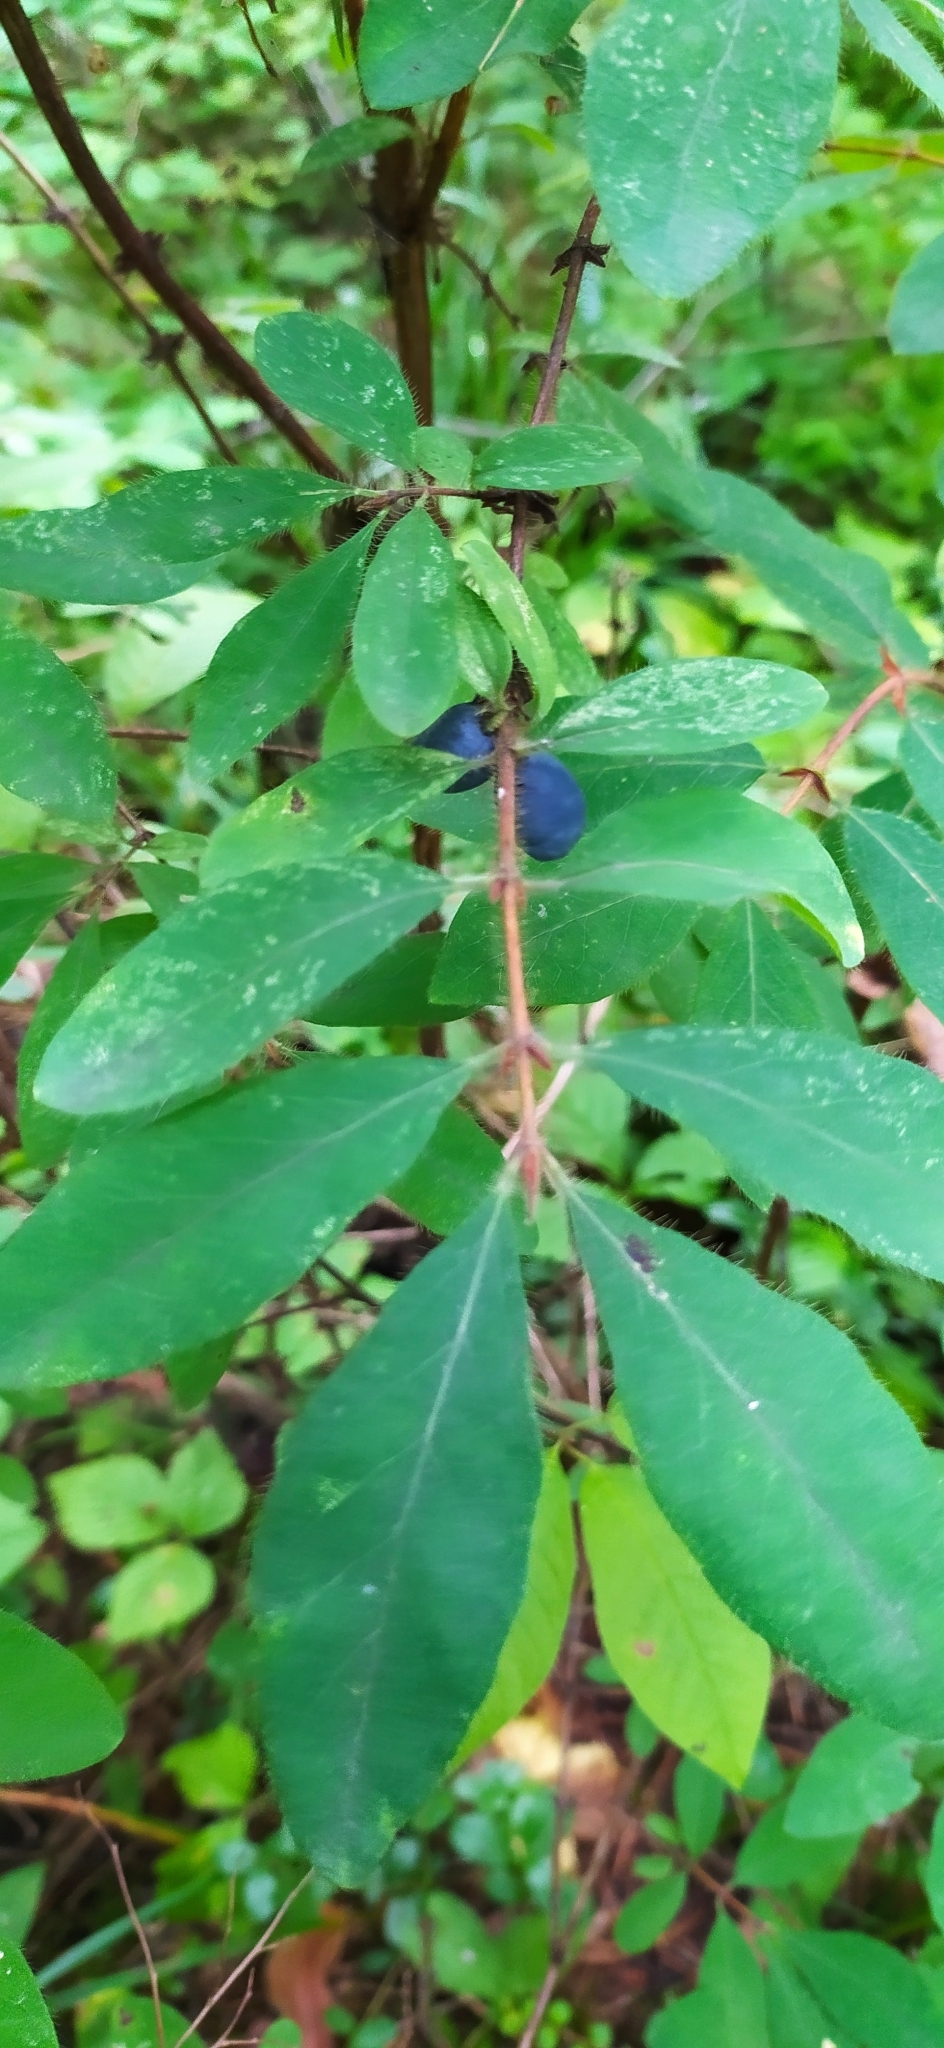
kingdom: Plantae
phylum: Tracheophyta
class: Magnoliopsida
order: Dipsacales
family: Caprifoliaceae
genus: Lonicera
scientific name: Lonicera caerulea
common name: Blue honeysuckle
